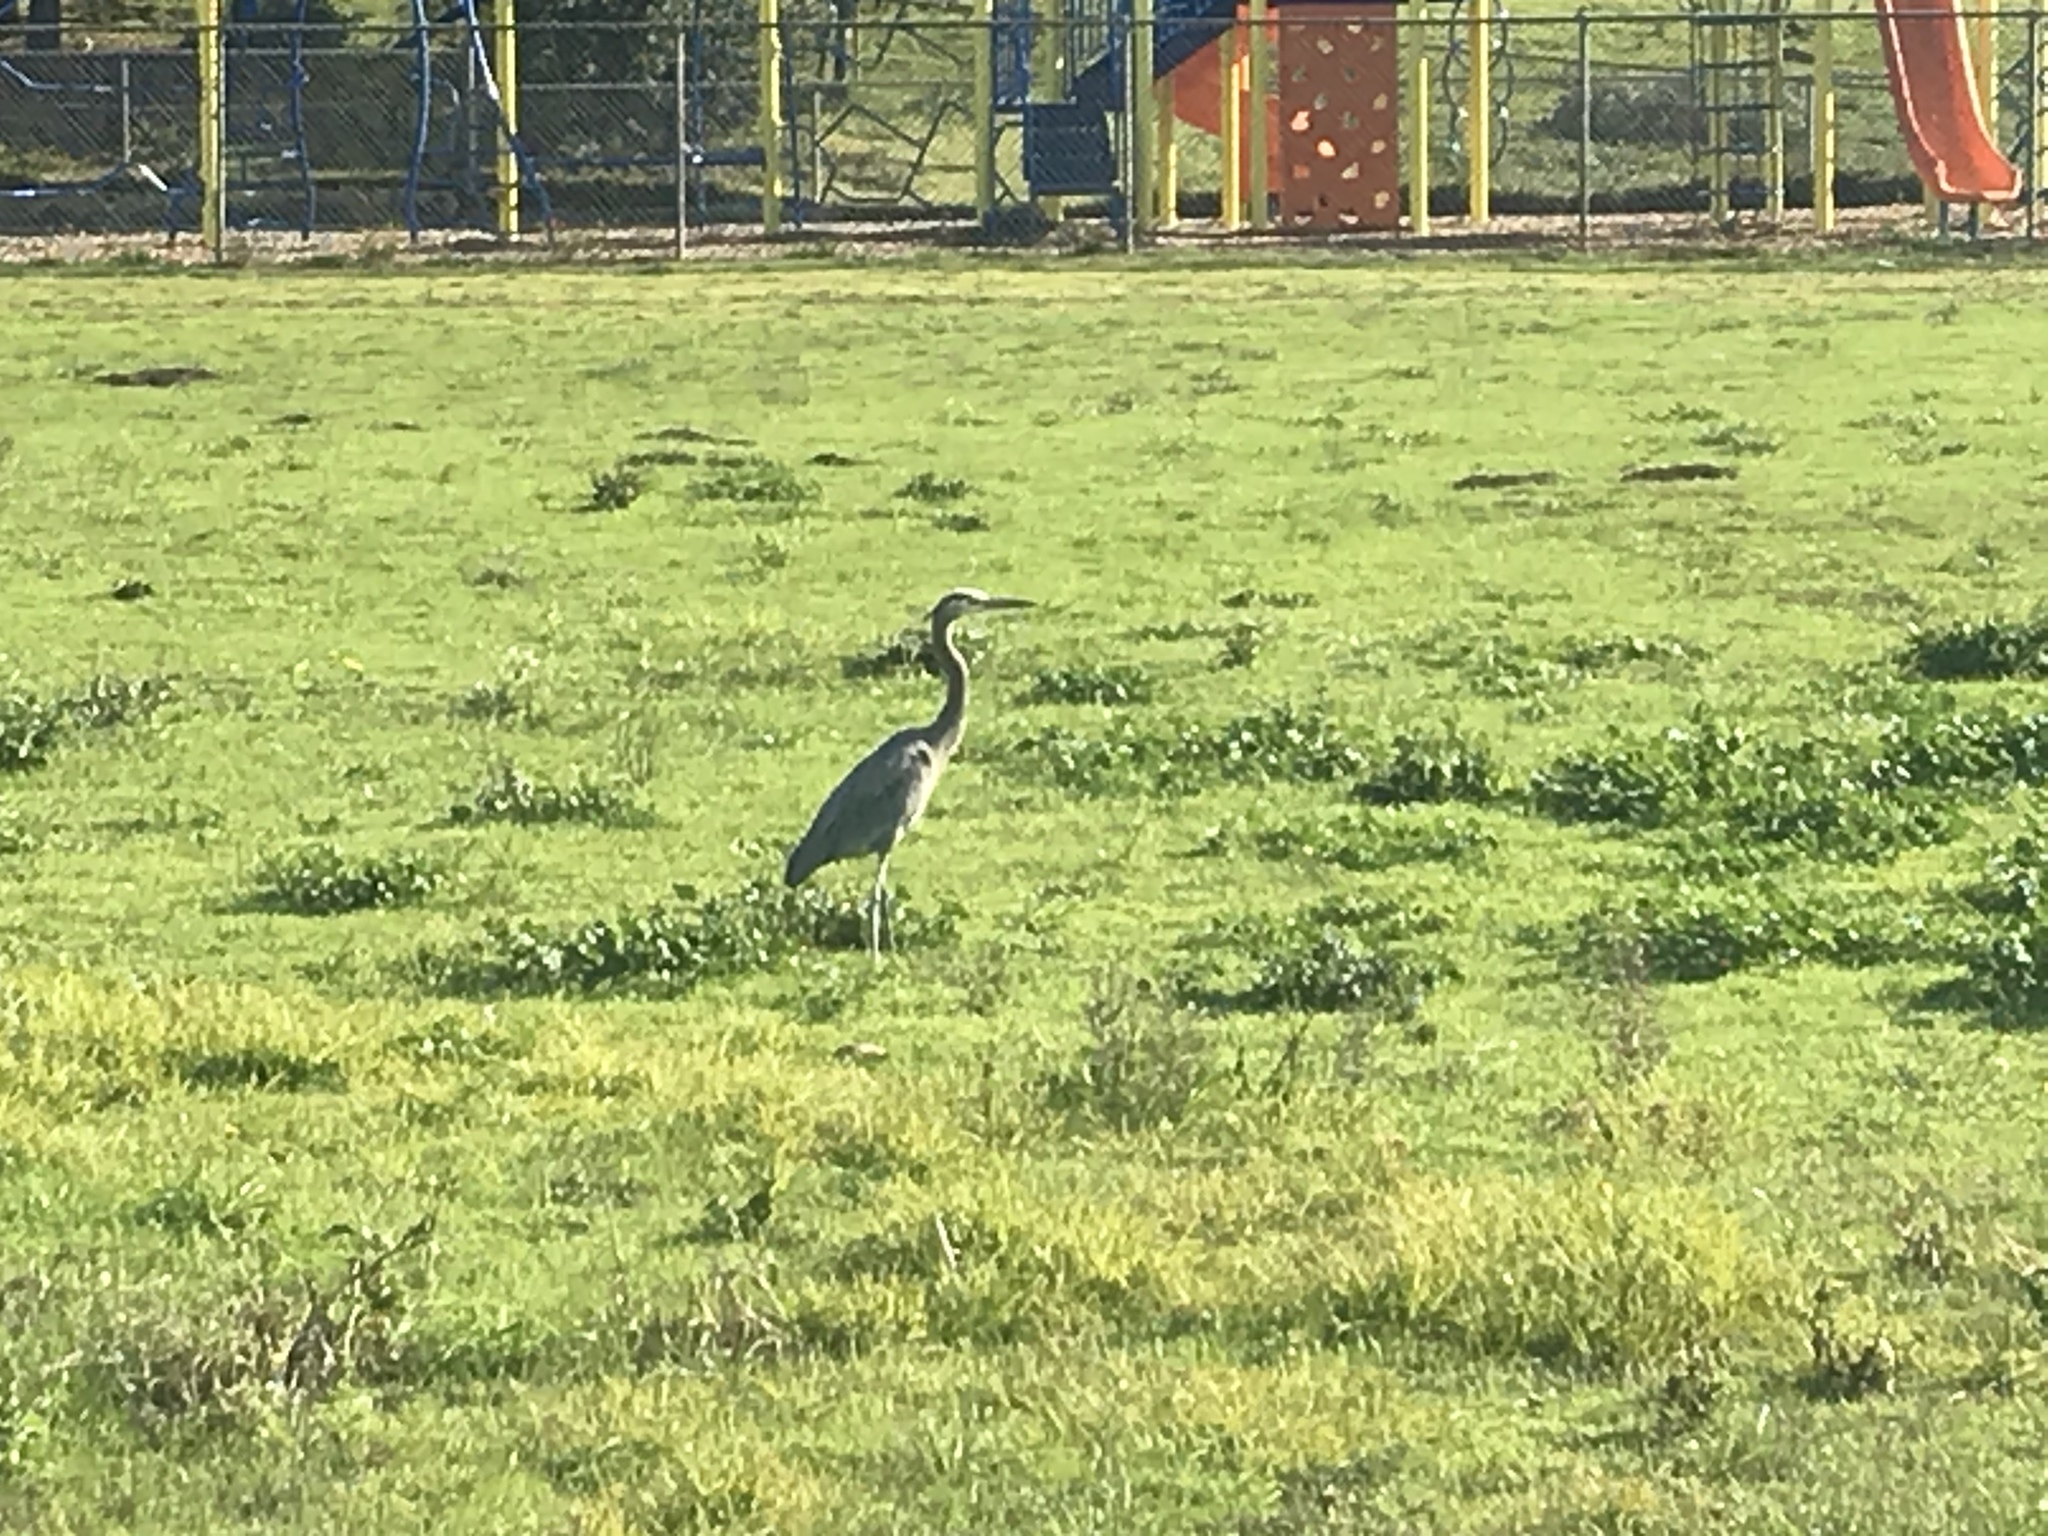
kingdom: Animalia
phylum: Chordata
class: Aves
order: Pelecaniformes
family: Ardeidae
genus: Ardea
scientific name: Ardea herodias
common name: Great blue heron
